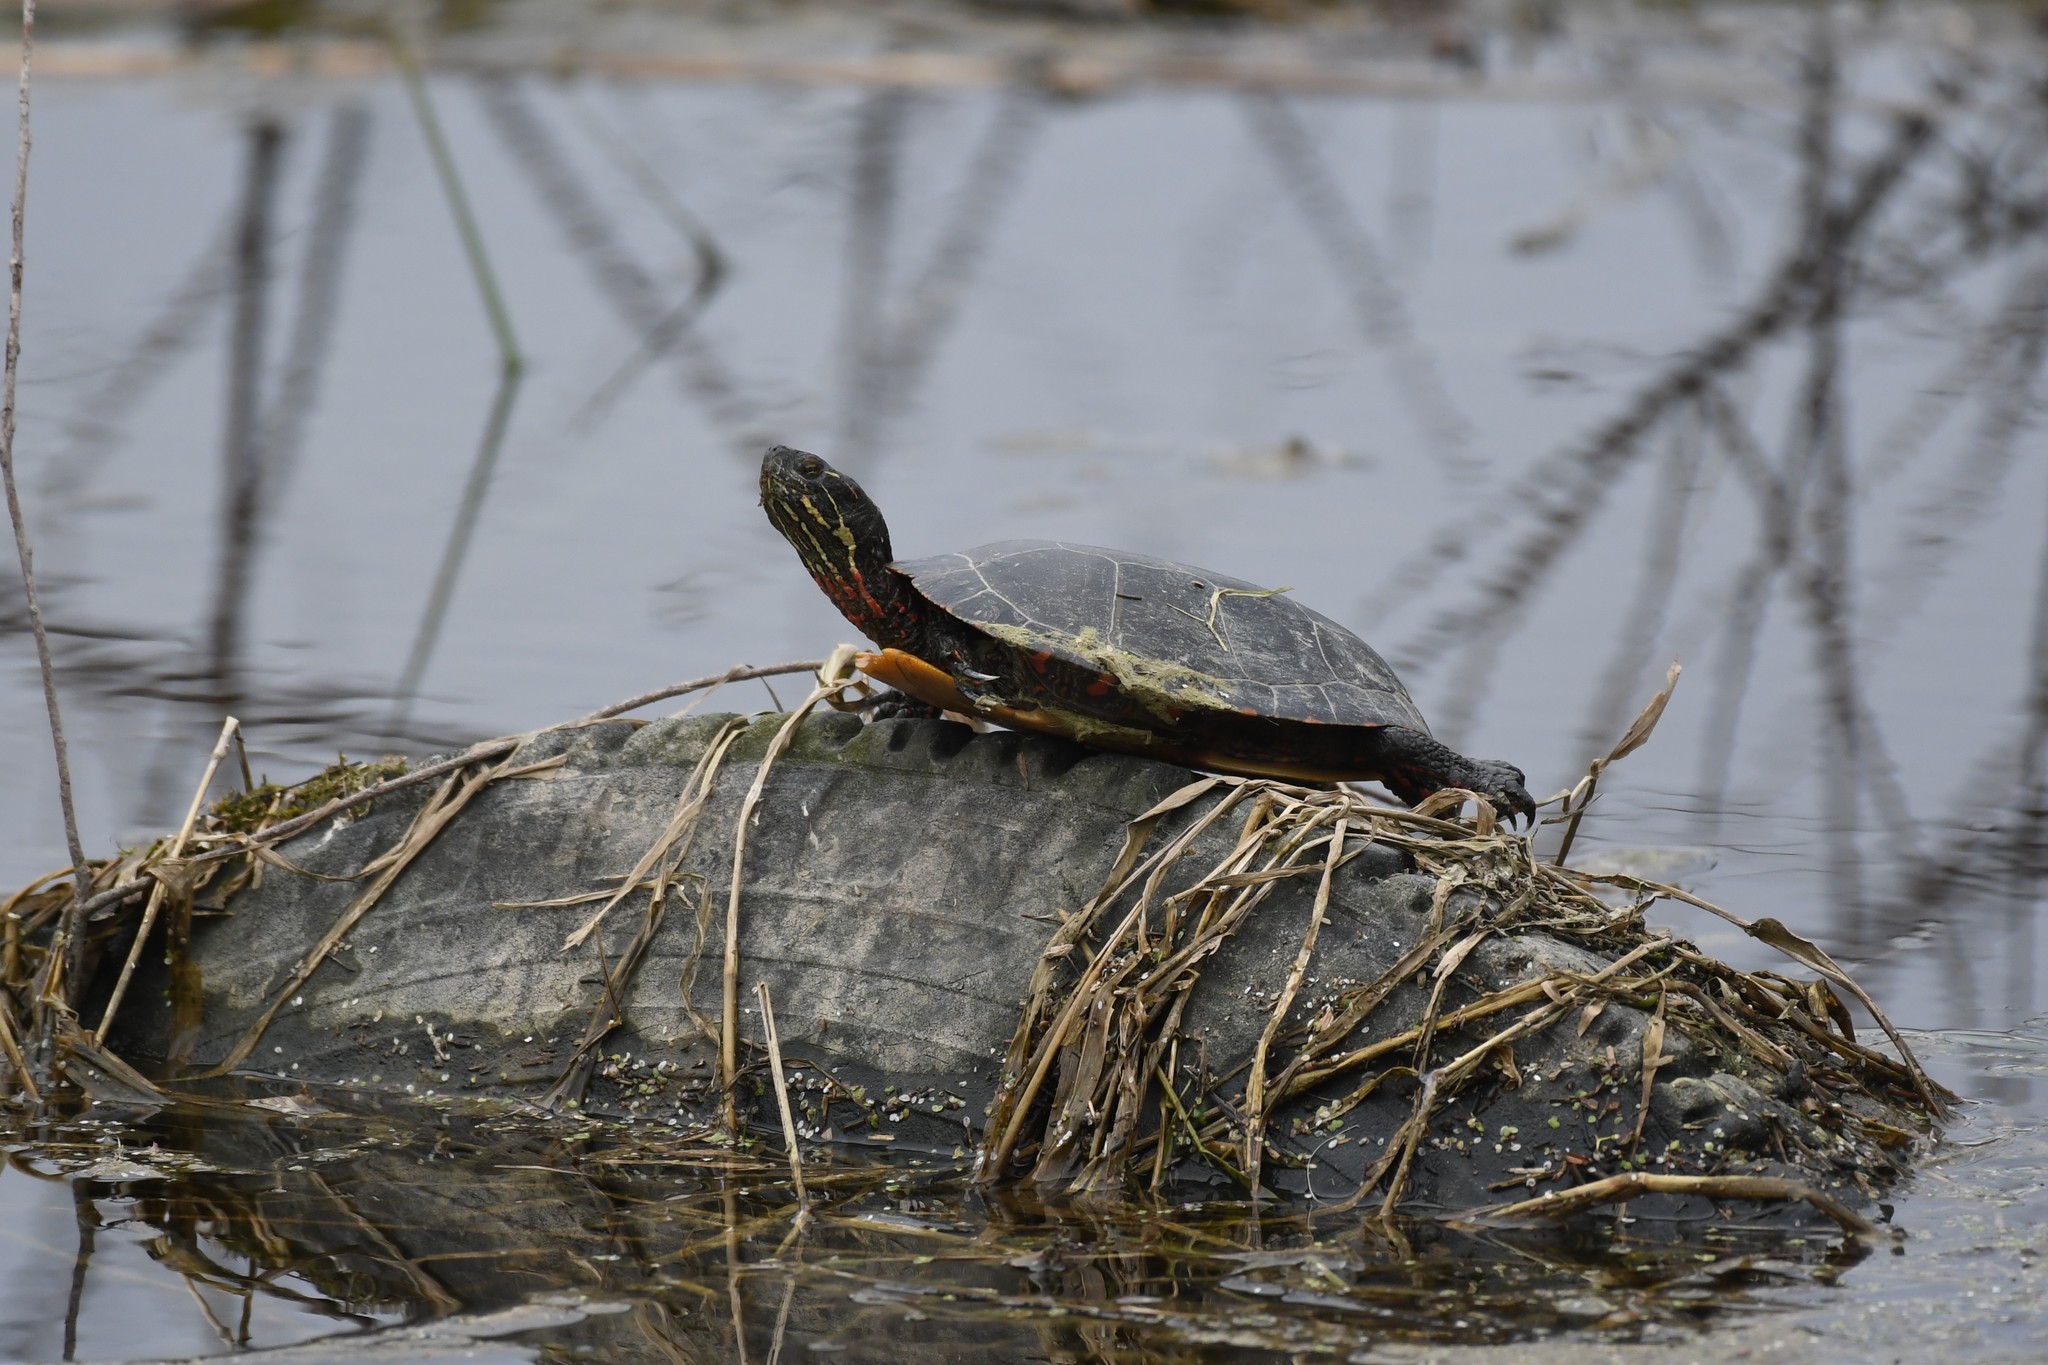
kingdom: Animalia
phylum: Chordata
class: Testudines
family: Emydidae
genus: Chrysemys
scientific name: Chrysemys picta
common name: Painted turtle
